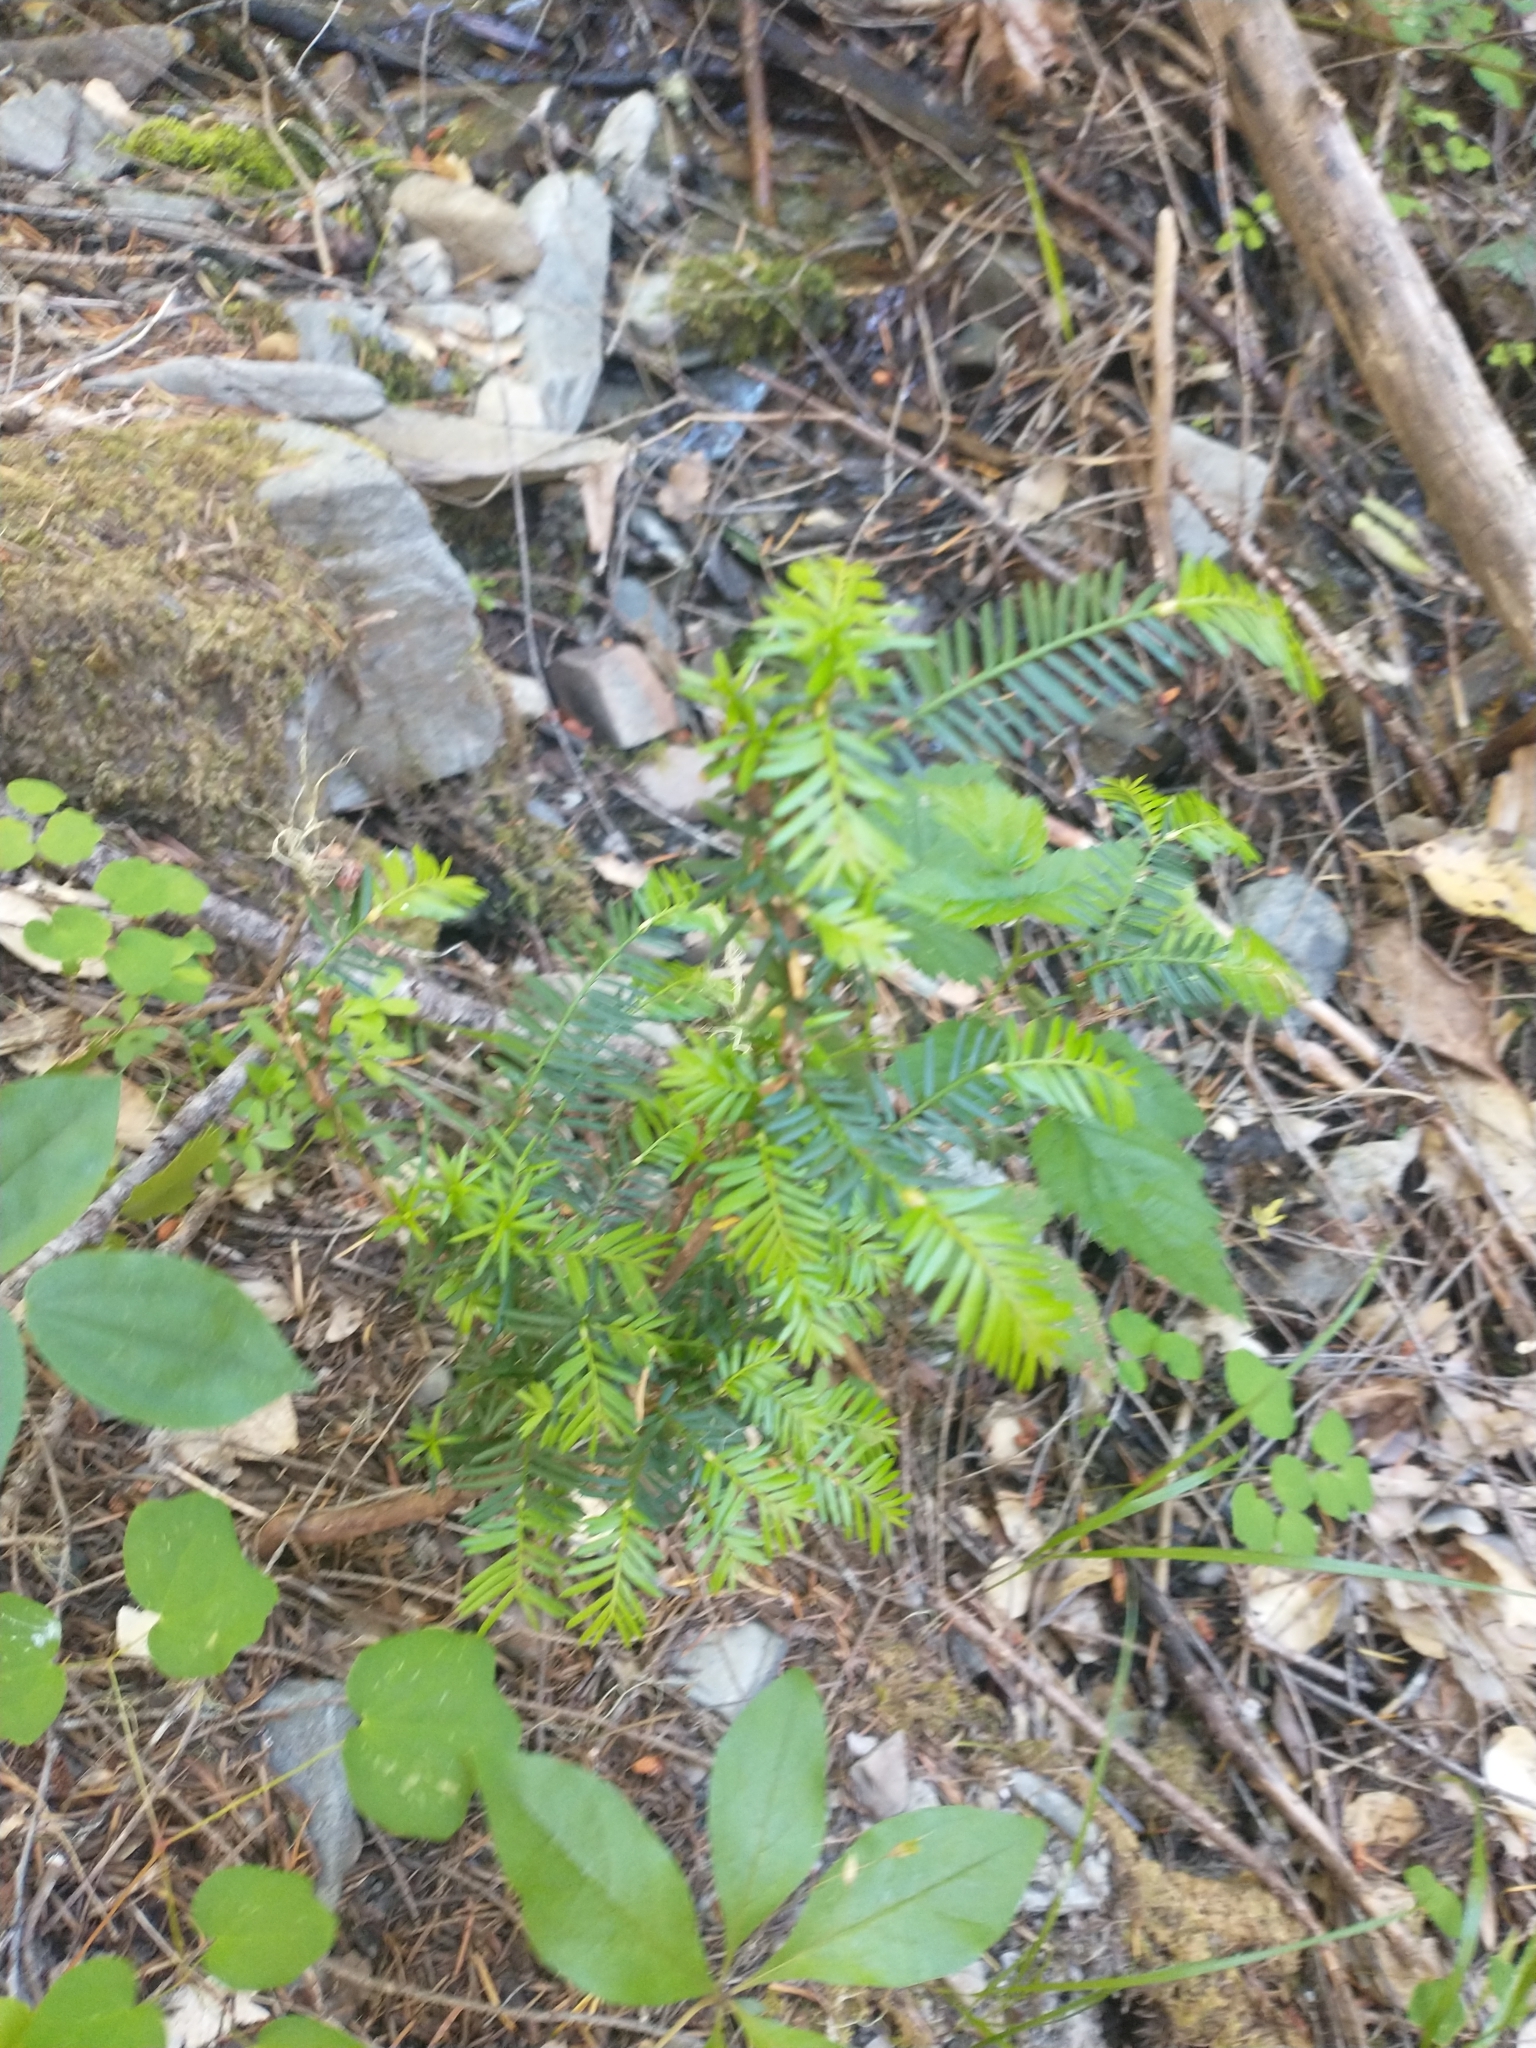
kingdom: Plantae
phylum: Tracheophyta
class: Pinopsida
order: Pinales
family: Taxaceae
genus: Taxus
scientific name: Taxus brevifolia
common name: Pacific yew
